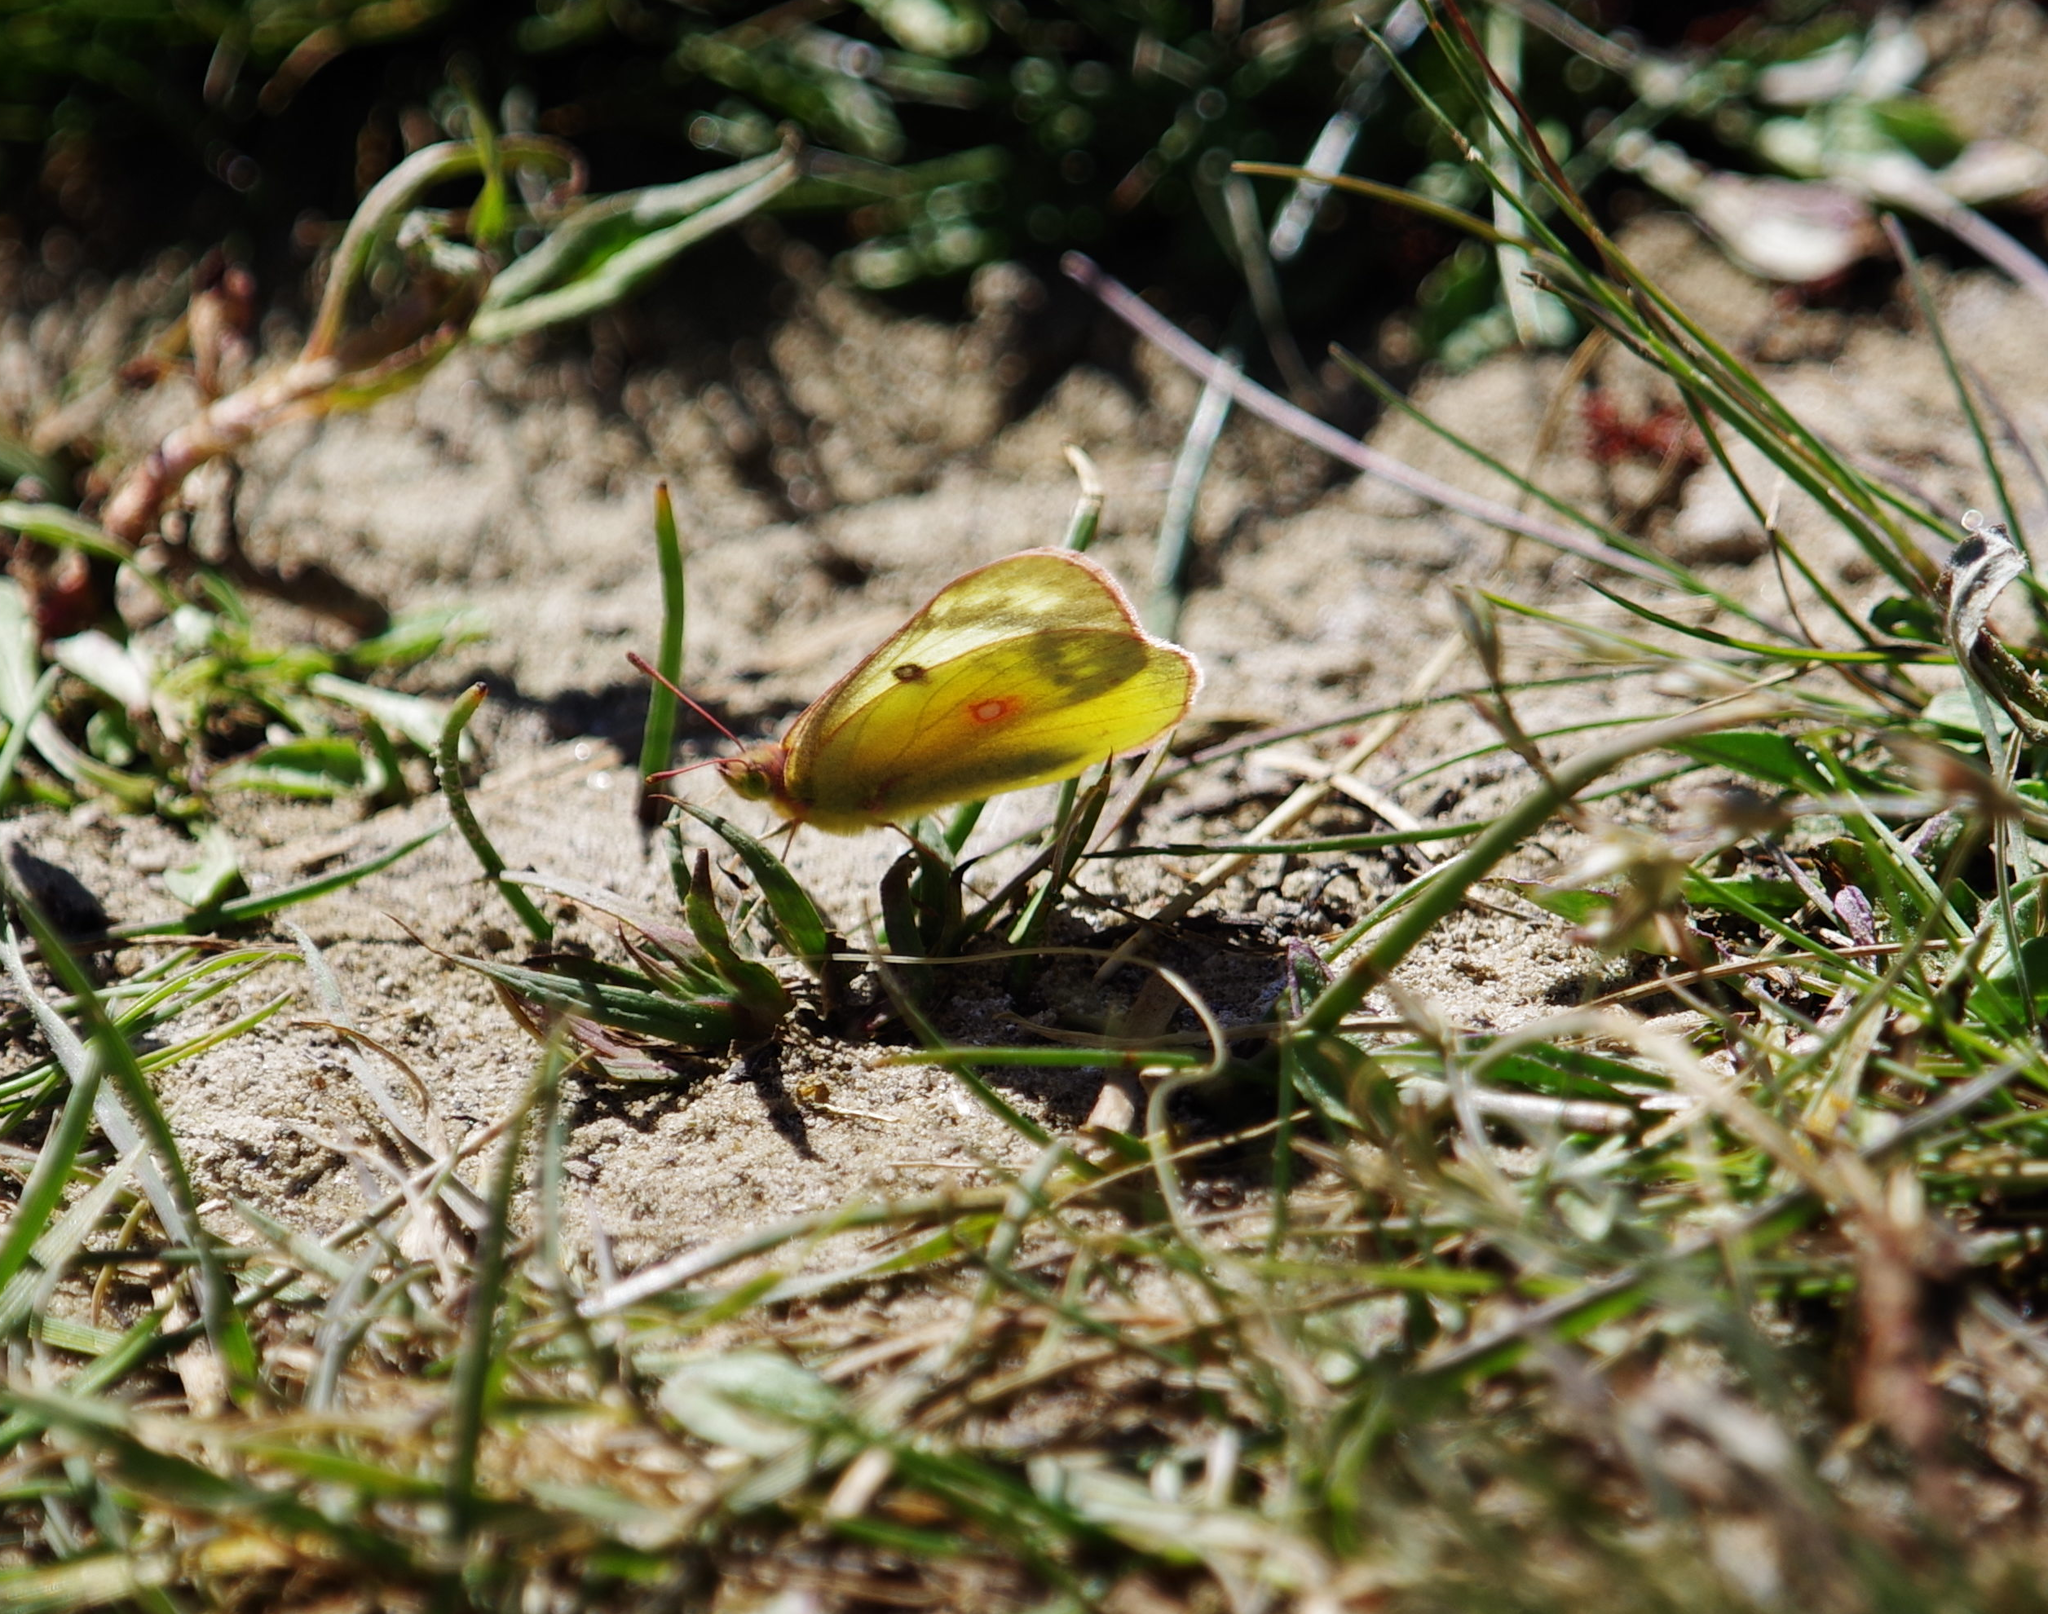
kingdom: Animalia
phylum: Arthropoda
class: Insecta
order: Lepidoptera
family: Pieridae
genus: Colias
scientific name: Colias eurytheme
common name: Alfalfa butterfly
